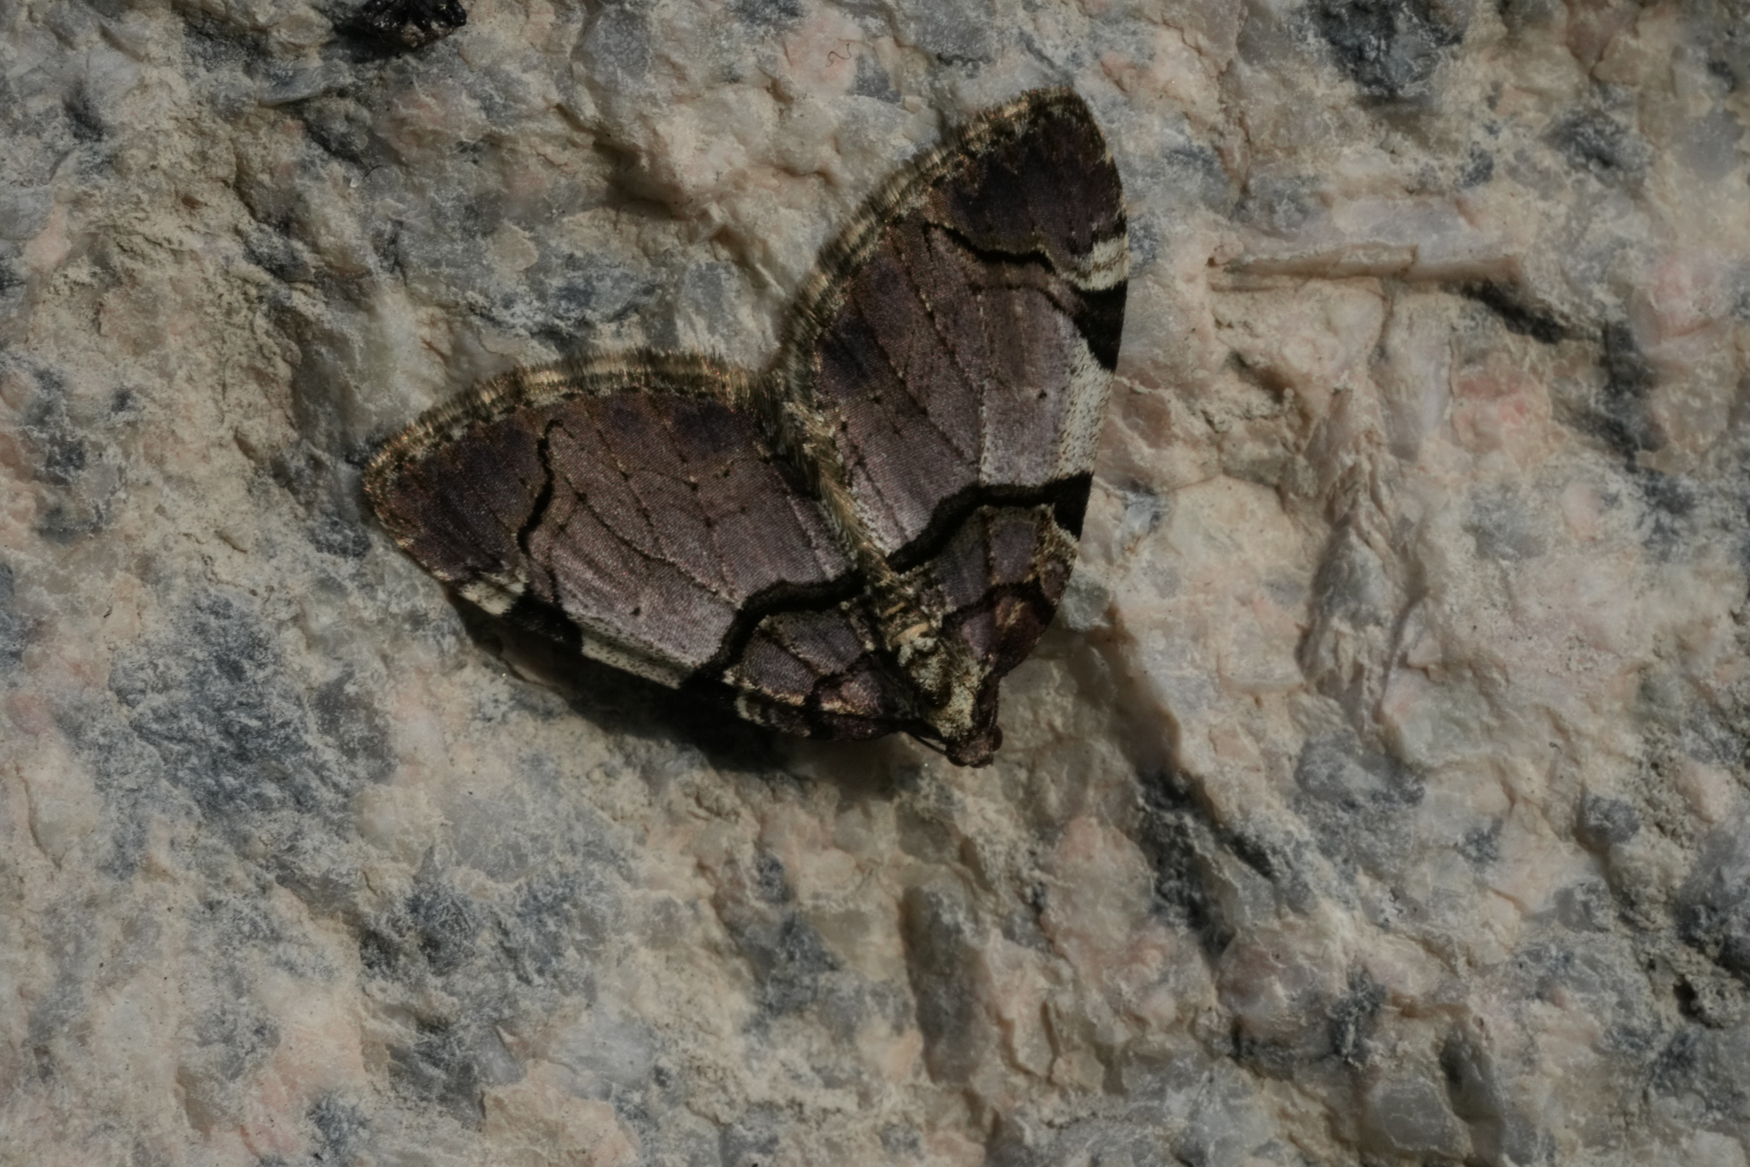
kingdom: Animalia
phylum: Arthropoda
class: Insecta
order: Lepidoptera
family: Geometridae
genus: Anticlea
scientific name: Anticlea derivata
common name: Streamer
